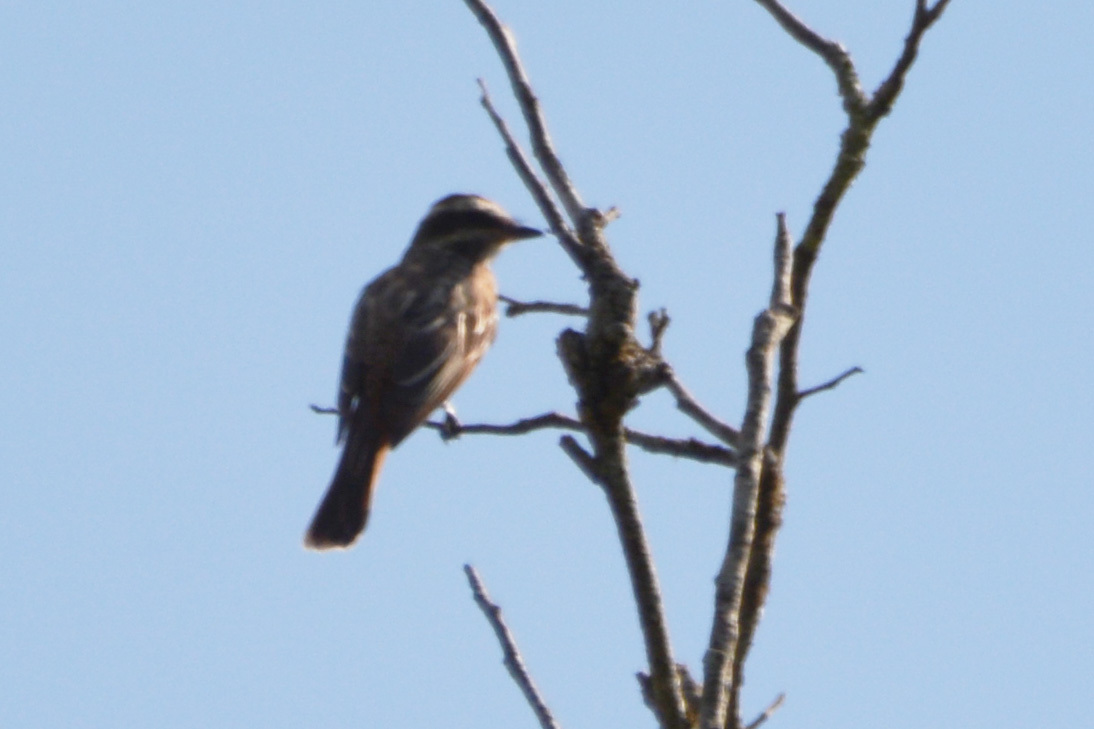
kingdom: Animalia
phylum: Chordata
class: Aves
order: Passeriformes
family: Tyrannidae
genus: Empidonomus
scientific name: Empidonomus varius
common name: Variegated flycatcher
